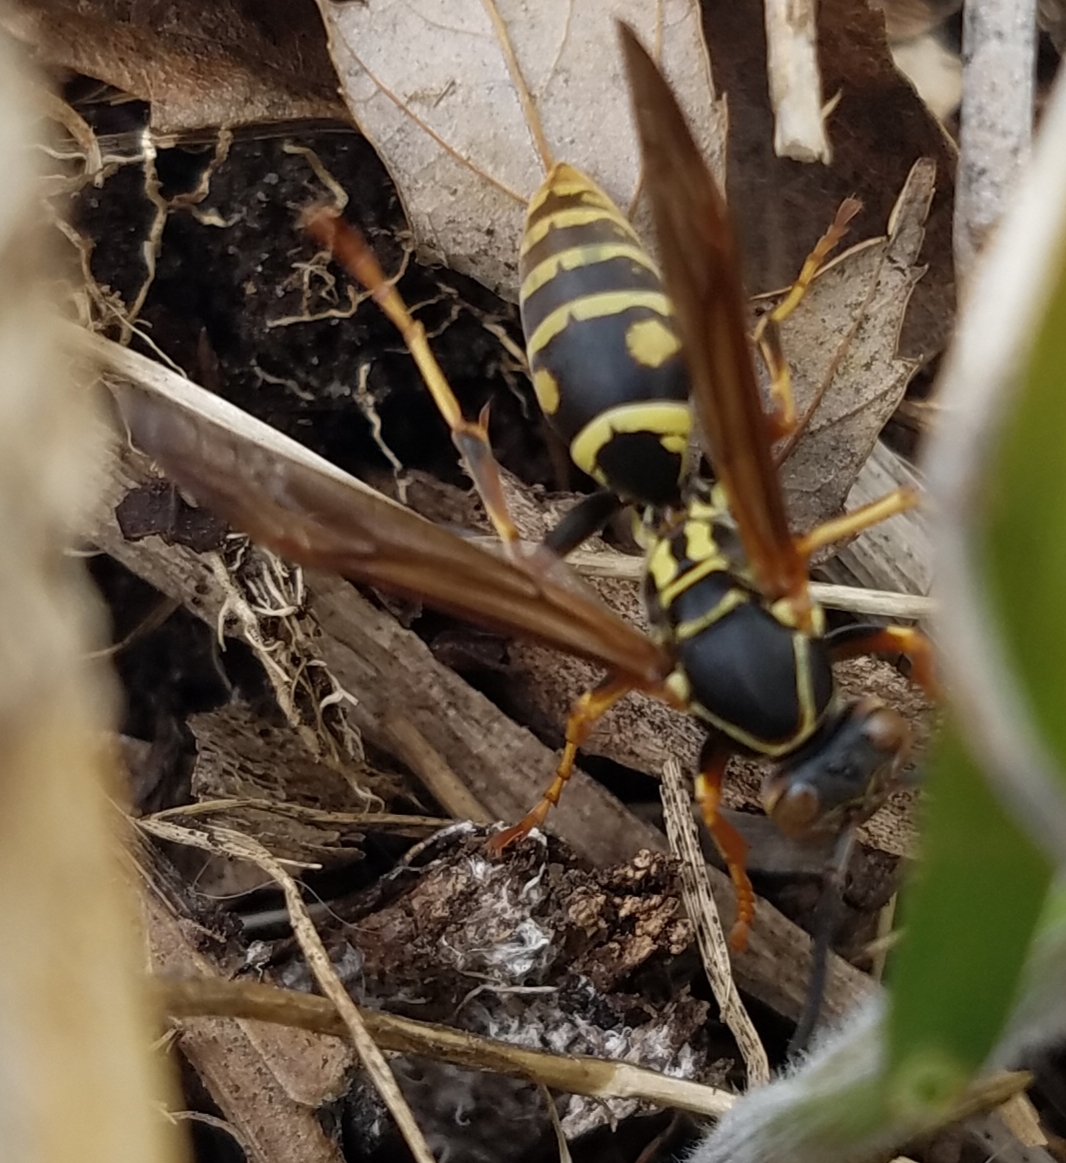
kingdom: Animalia
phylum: Arthropoda
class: Insecta
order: Hymenoptera
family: Eumenidae
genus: Polistes
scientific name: Polistes fuscatus
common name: Dark paper wasp
